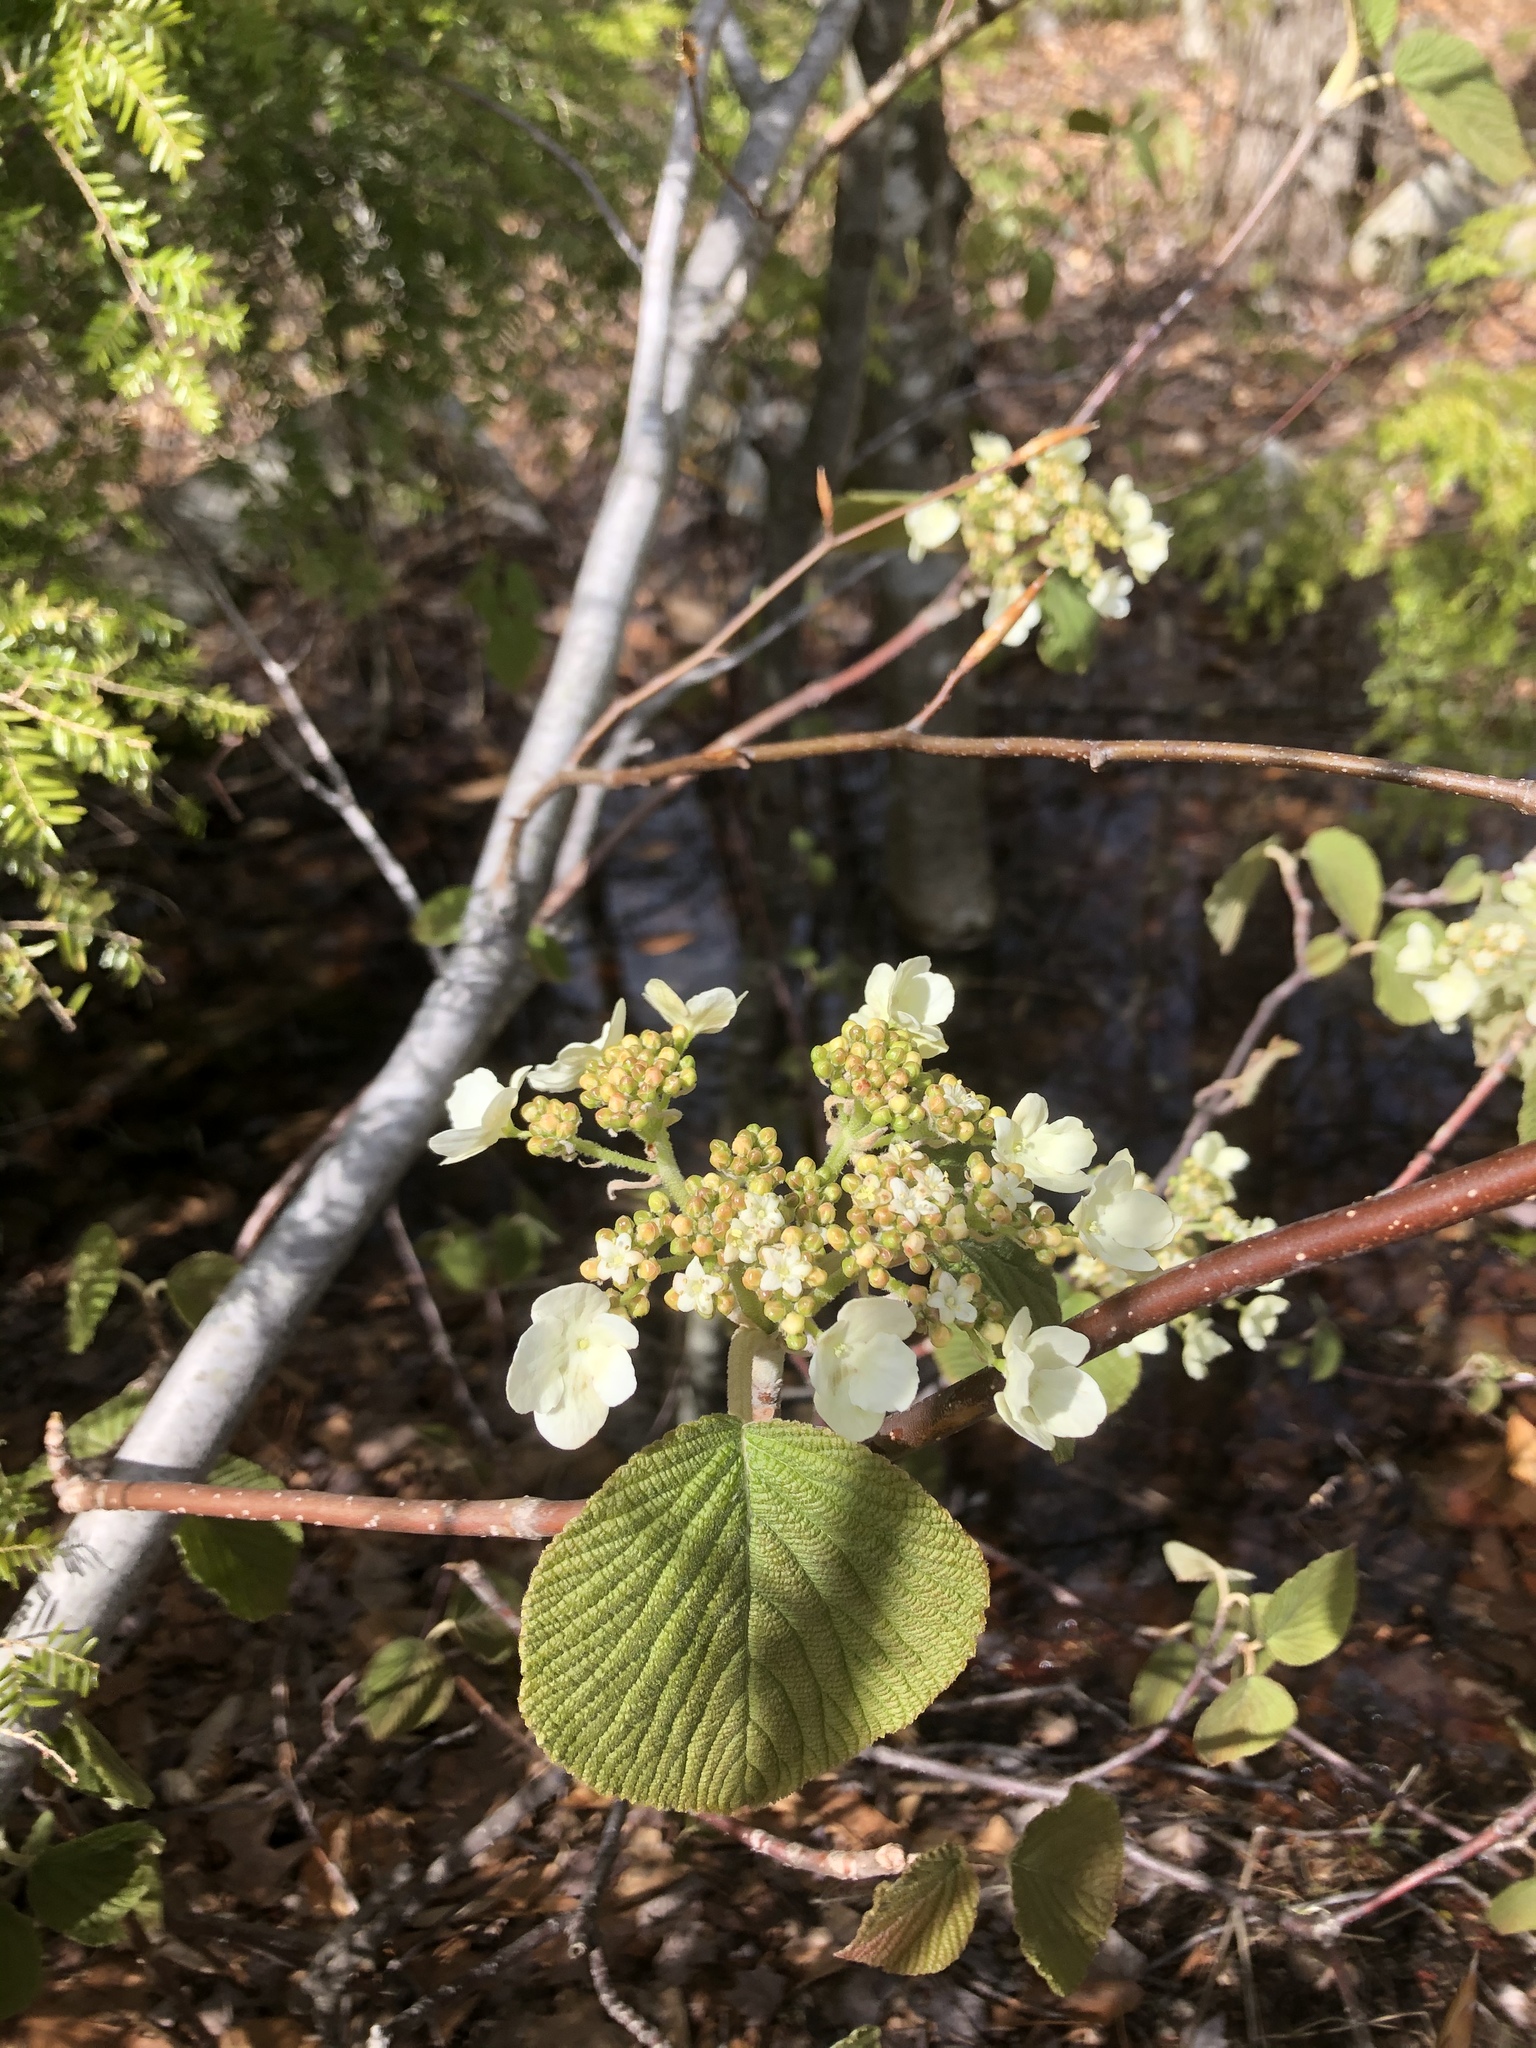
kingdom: Plantae
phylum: Tracheophyta
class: Magnoliopsida
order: Dipsacales
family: Viburnaceae
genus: Viburnum
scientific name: Viburnum lantanoides
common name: Hobblebush
